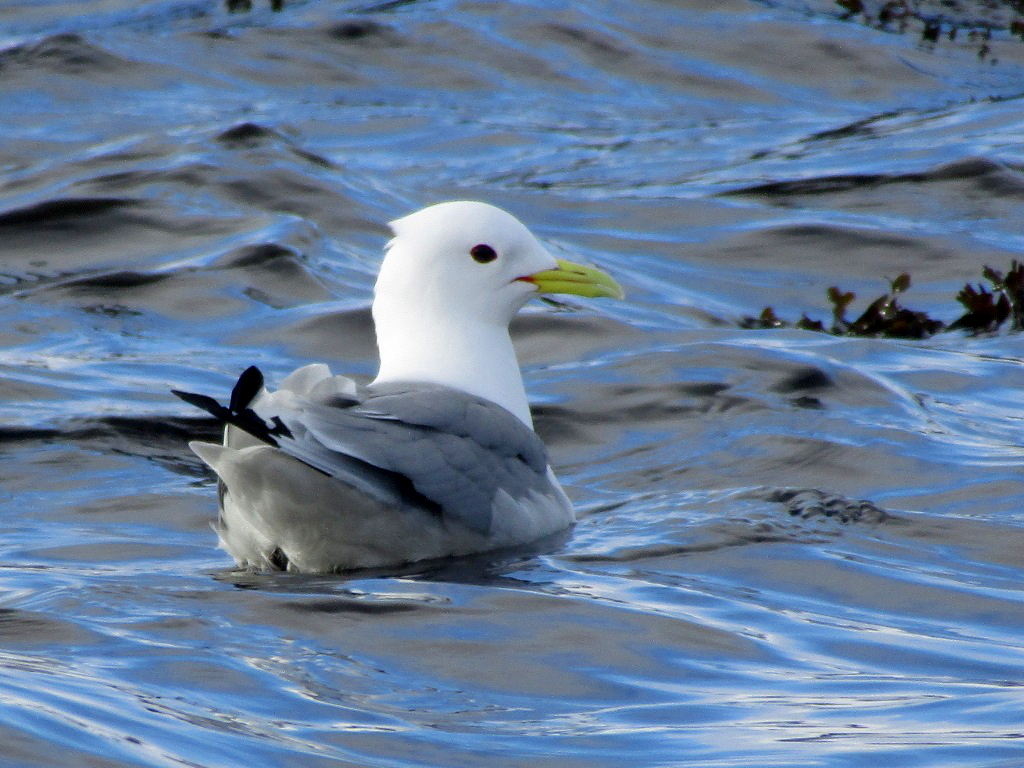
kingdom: Animalia
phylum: Chordata
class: Aves
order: Charadriiformes
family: Laridae
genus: Rissa
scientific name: Rissa tridactyla
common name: Black-legged kittiwake
